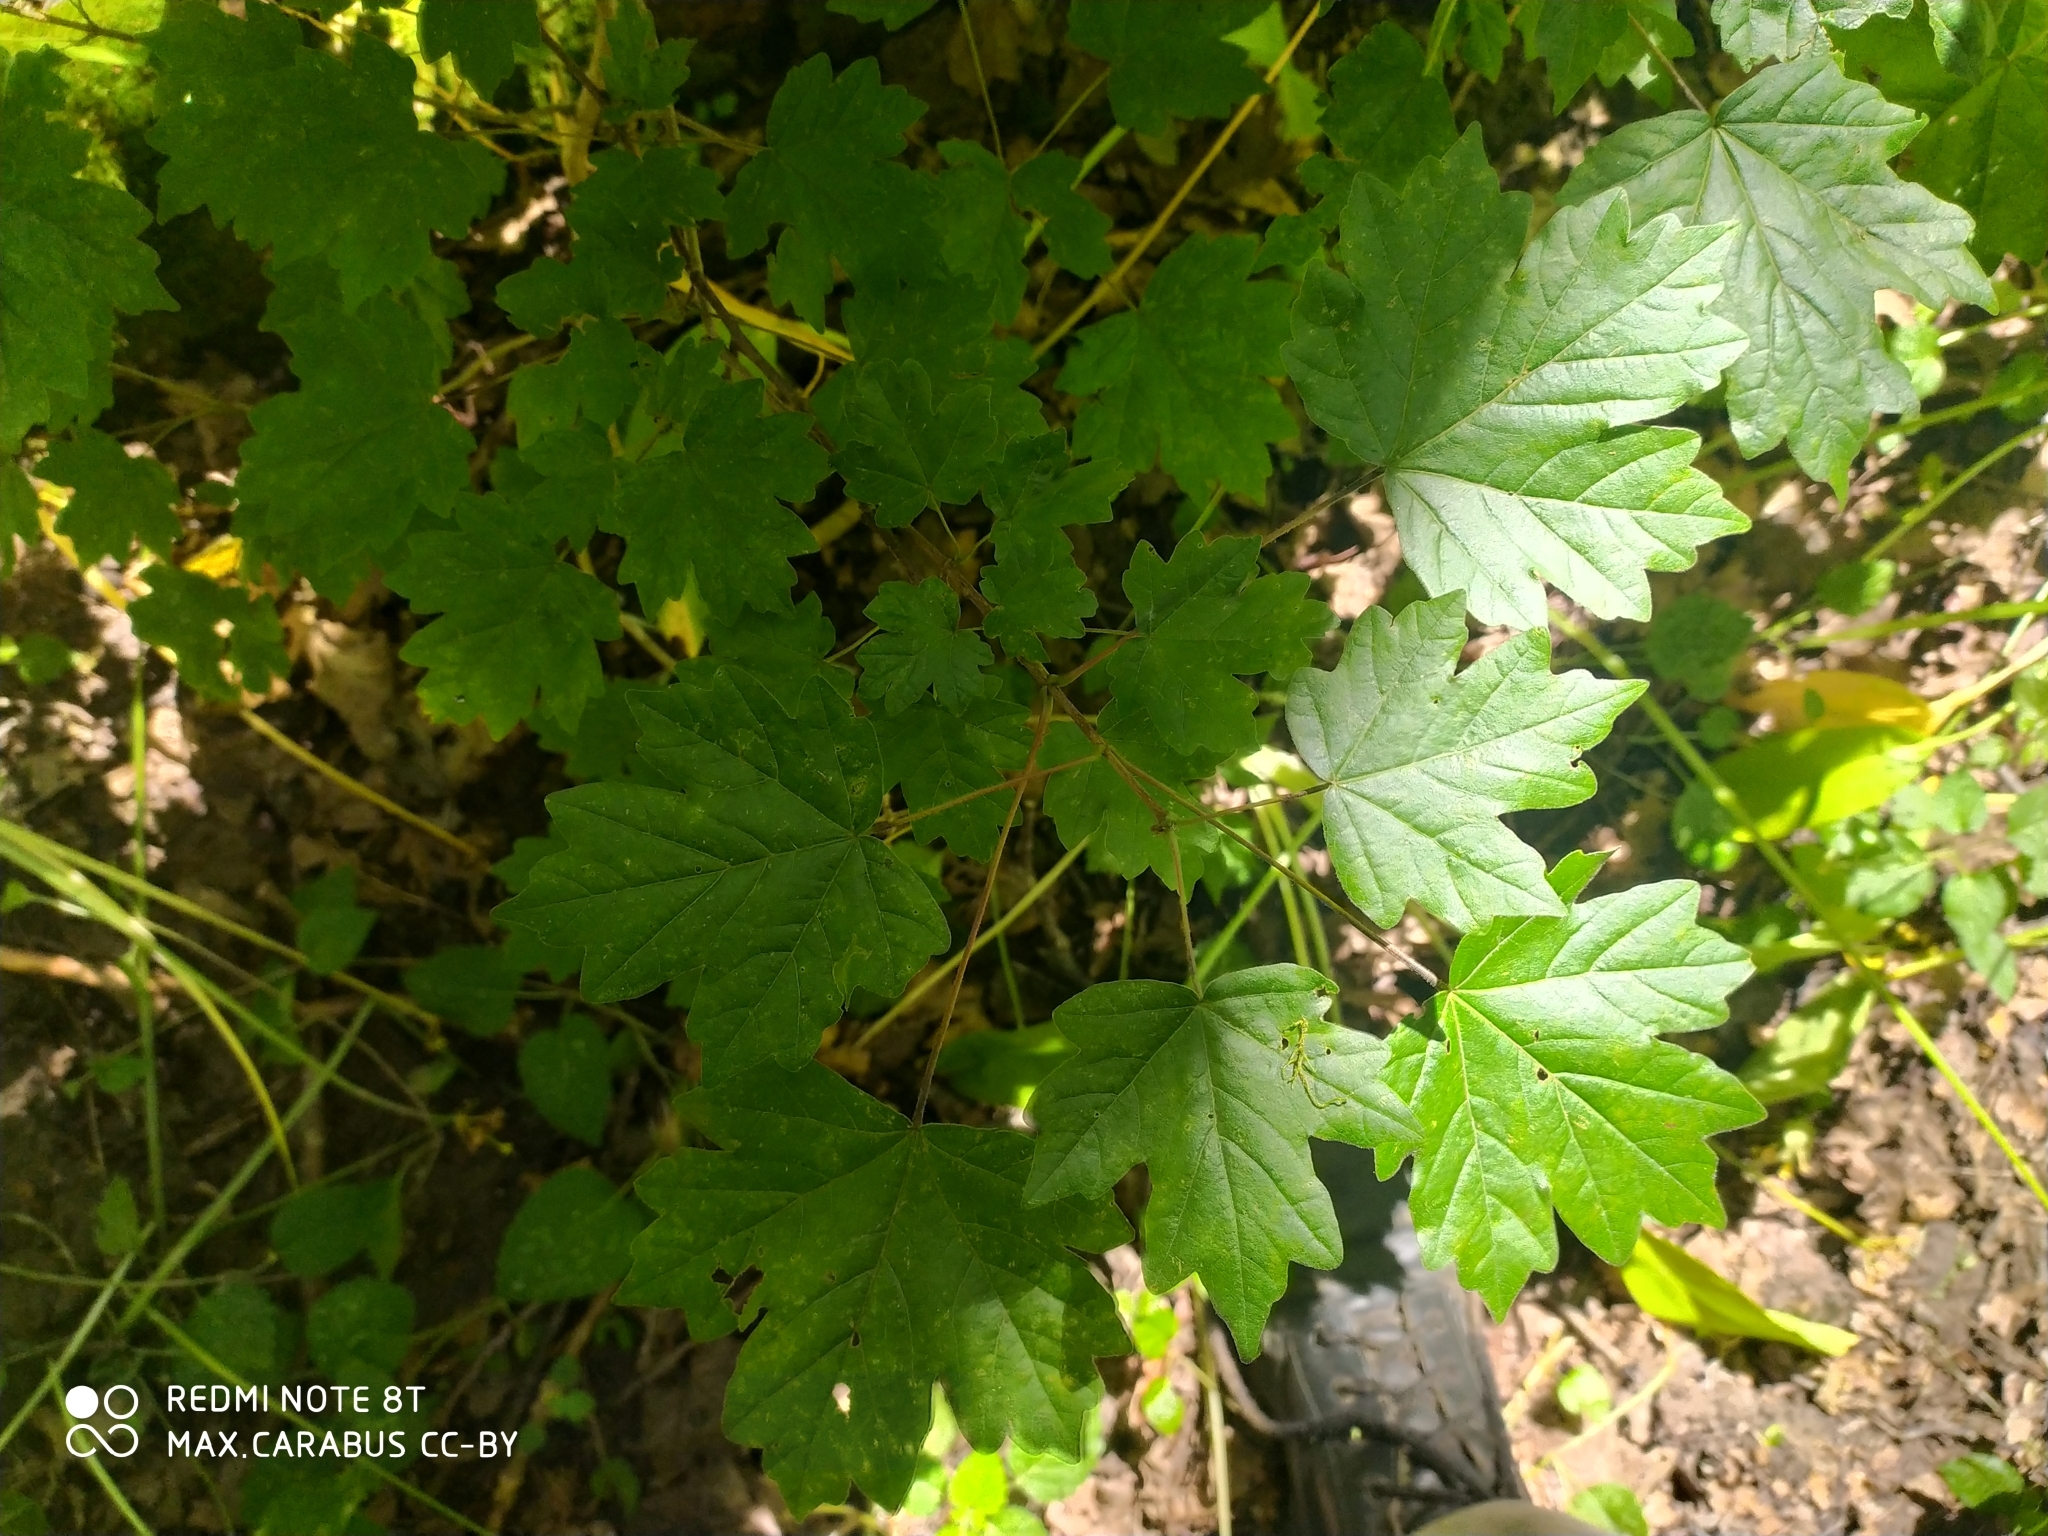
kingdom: Plantae
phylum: Tracheophyta
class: Magnoliopsida
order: Sapindales
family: Sapindaceae
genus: Acer
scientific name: Acer campestre
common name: Field maple
